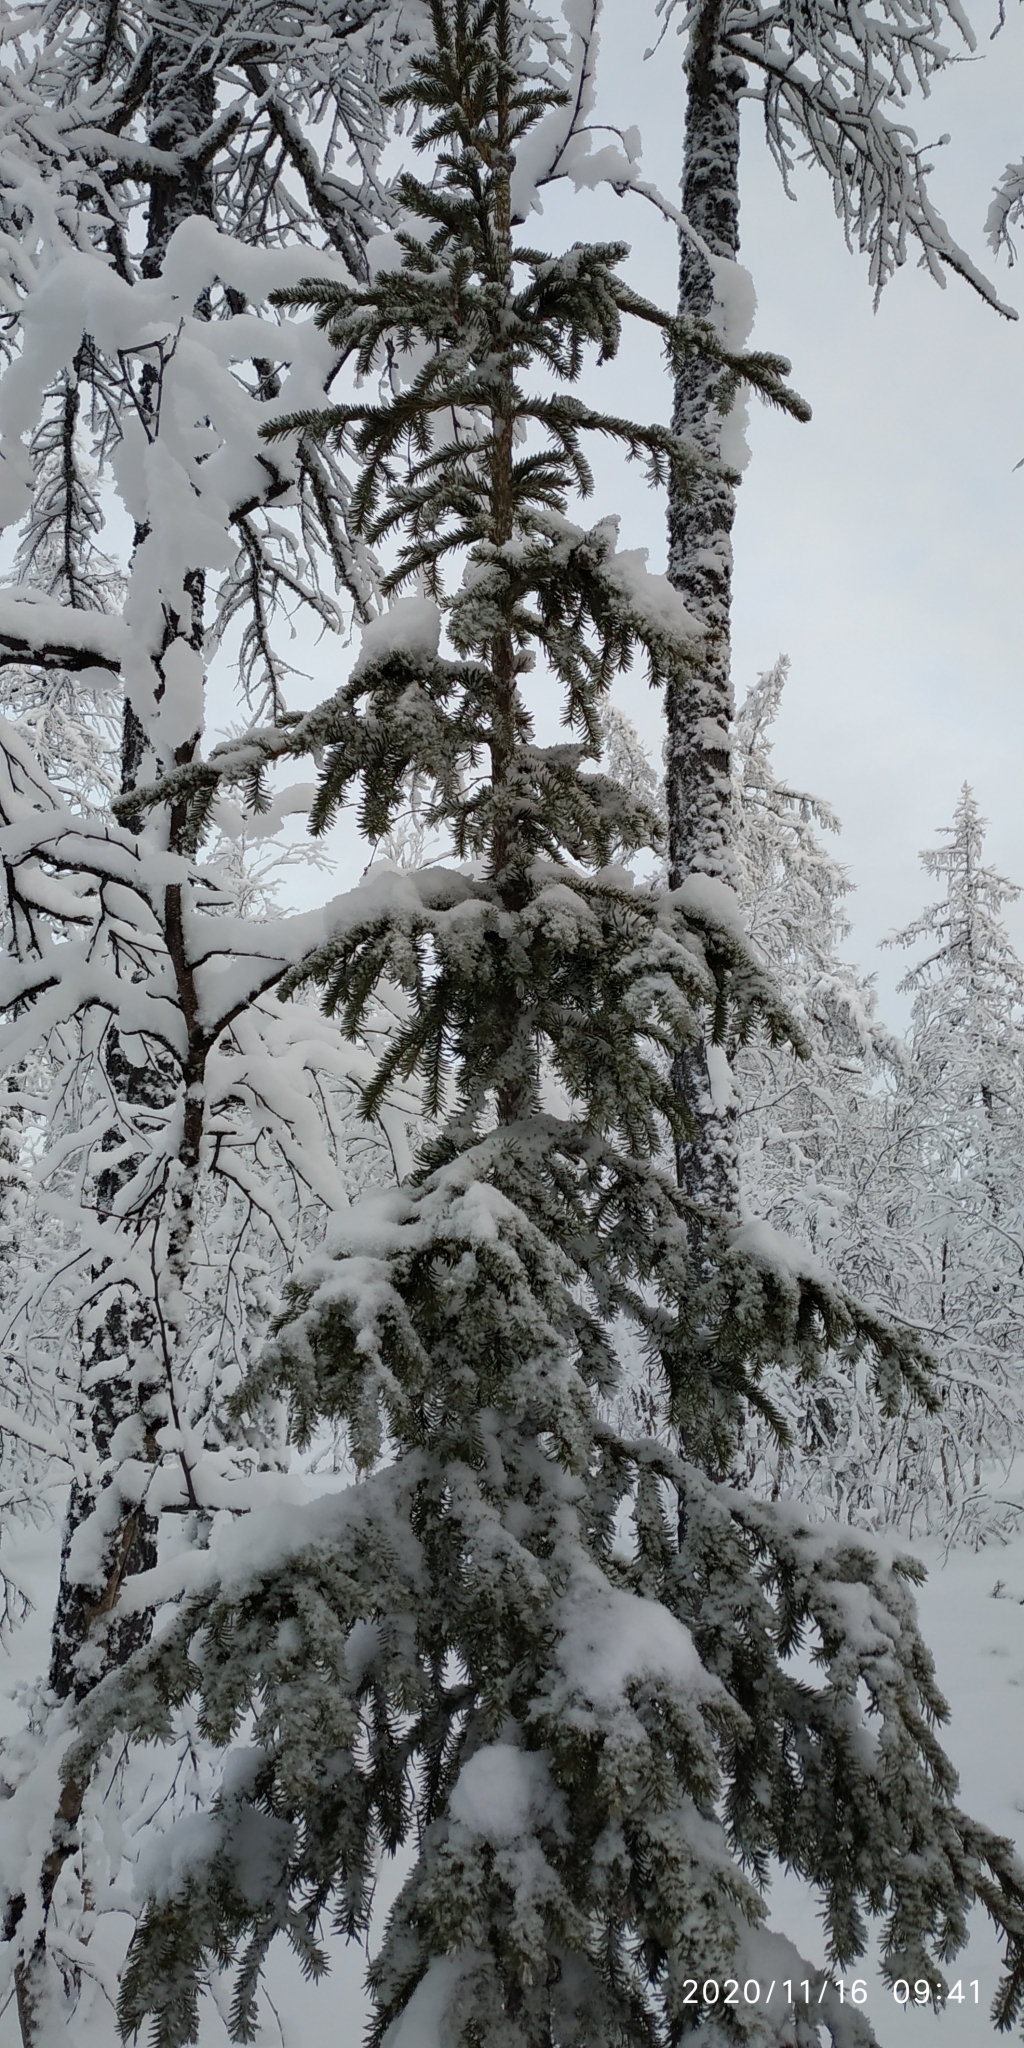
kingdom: Plantae
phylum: Tracheophyta
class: Pinopsida
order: Pinales
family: Pinaceae
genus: Picea
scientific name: Picea obovata
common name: Siberian spruce
